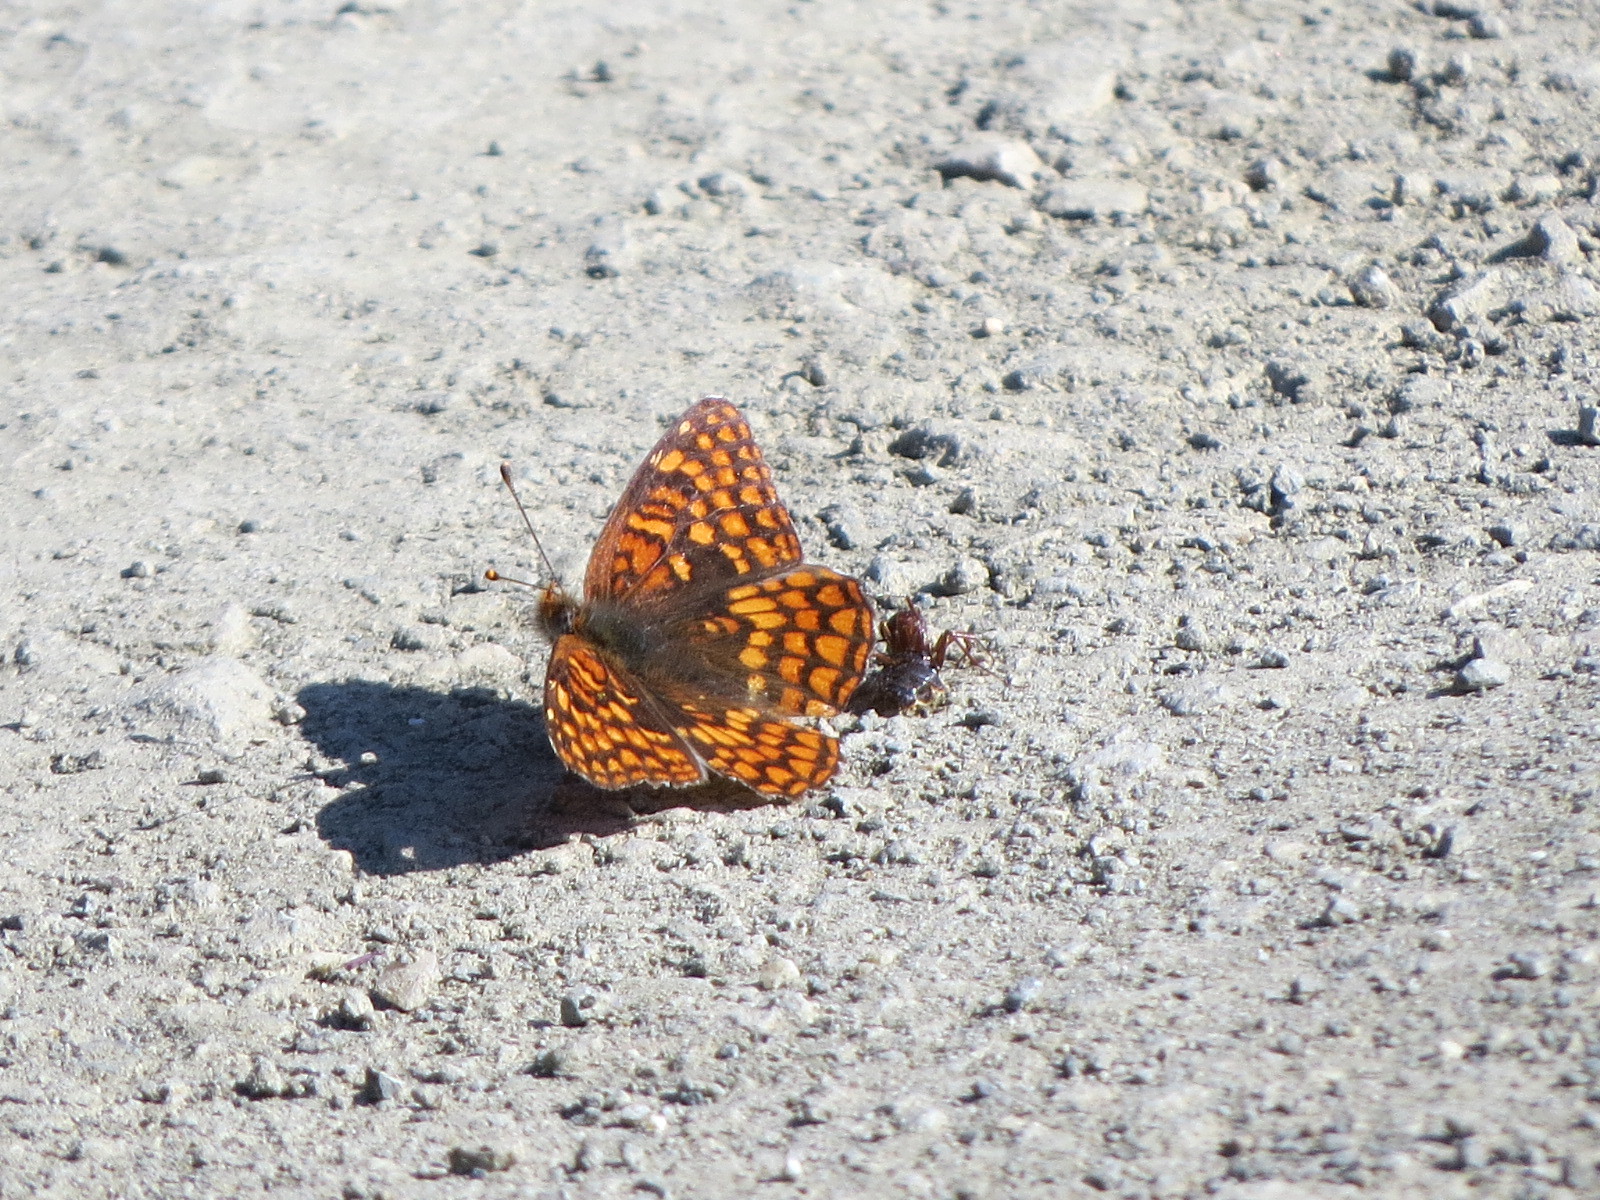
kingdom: Animalia
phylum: Arthropoda
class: Insecta
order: Lepidoptera
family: Nymphalidae
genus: Chlosyne
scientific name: Chlosyne palla
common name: Northern checkerspot
